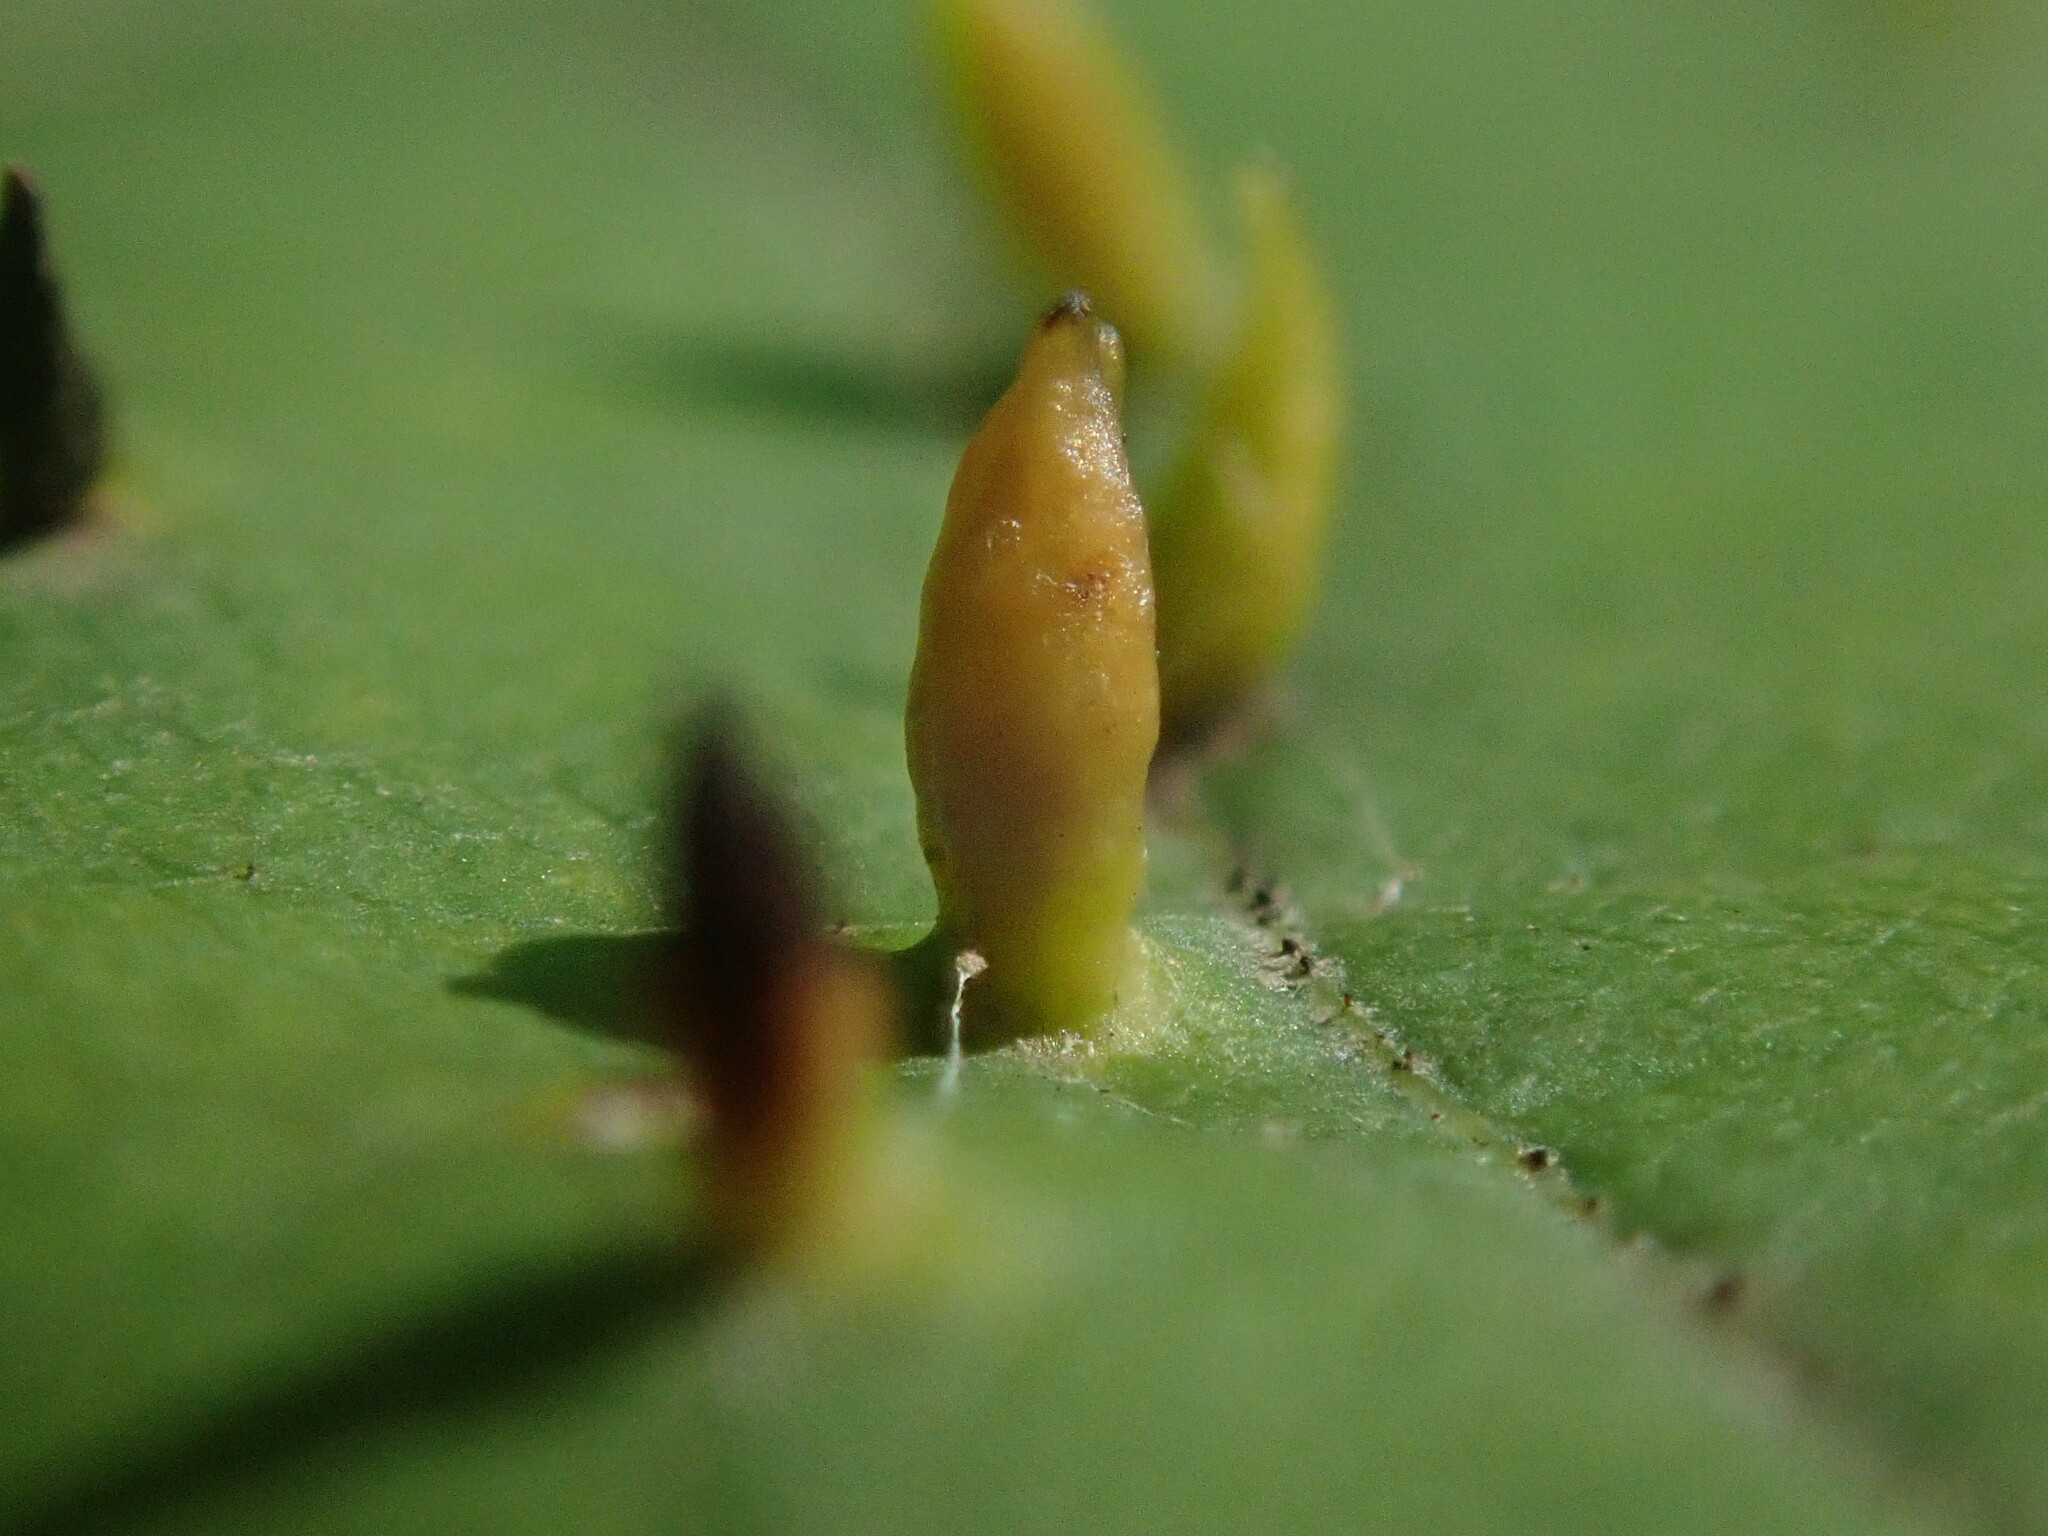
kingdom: Animalia
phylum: Arthropoda
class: Arachnida
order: Trombidiformes
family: Eriophyidae
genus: Vasates
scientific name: Vasates aceriscrumena
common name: Maple spindle gall mite
